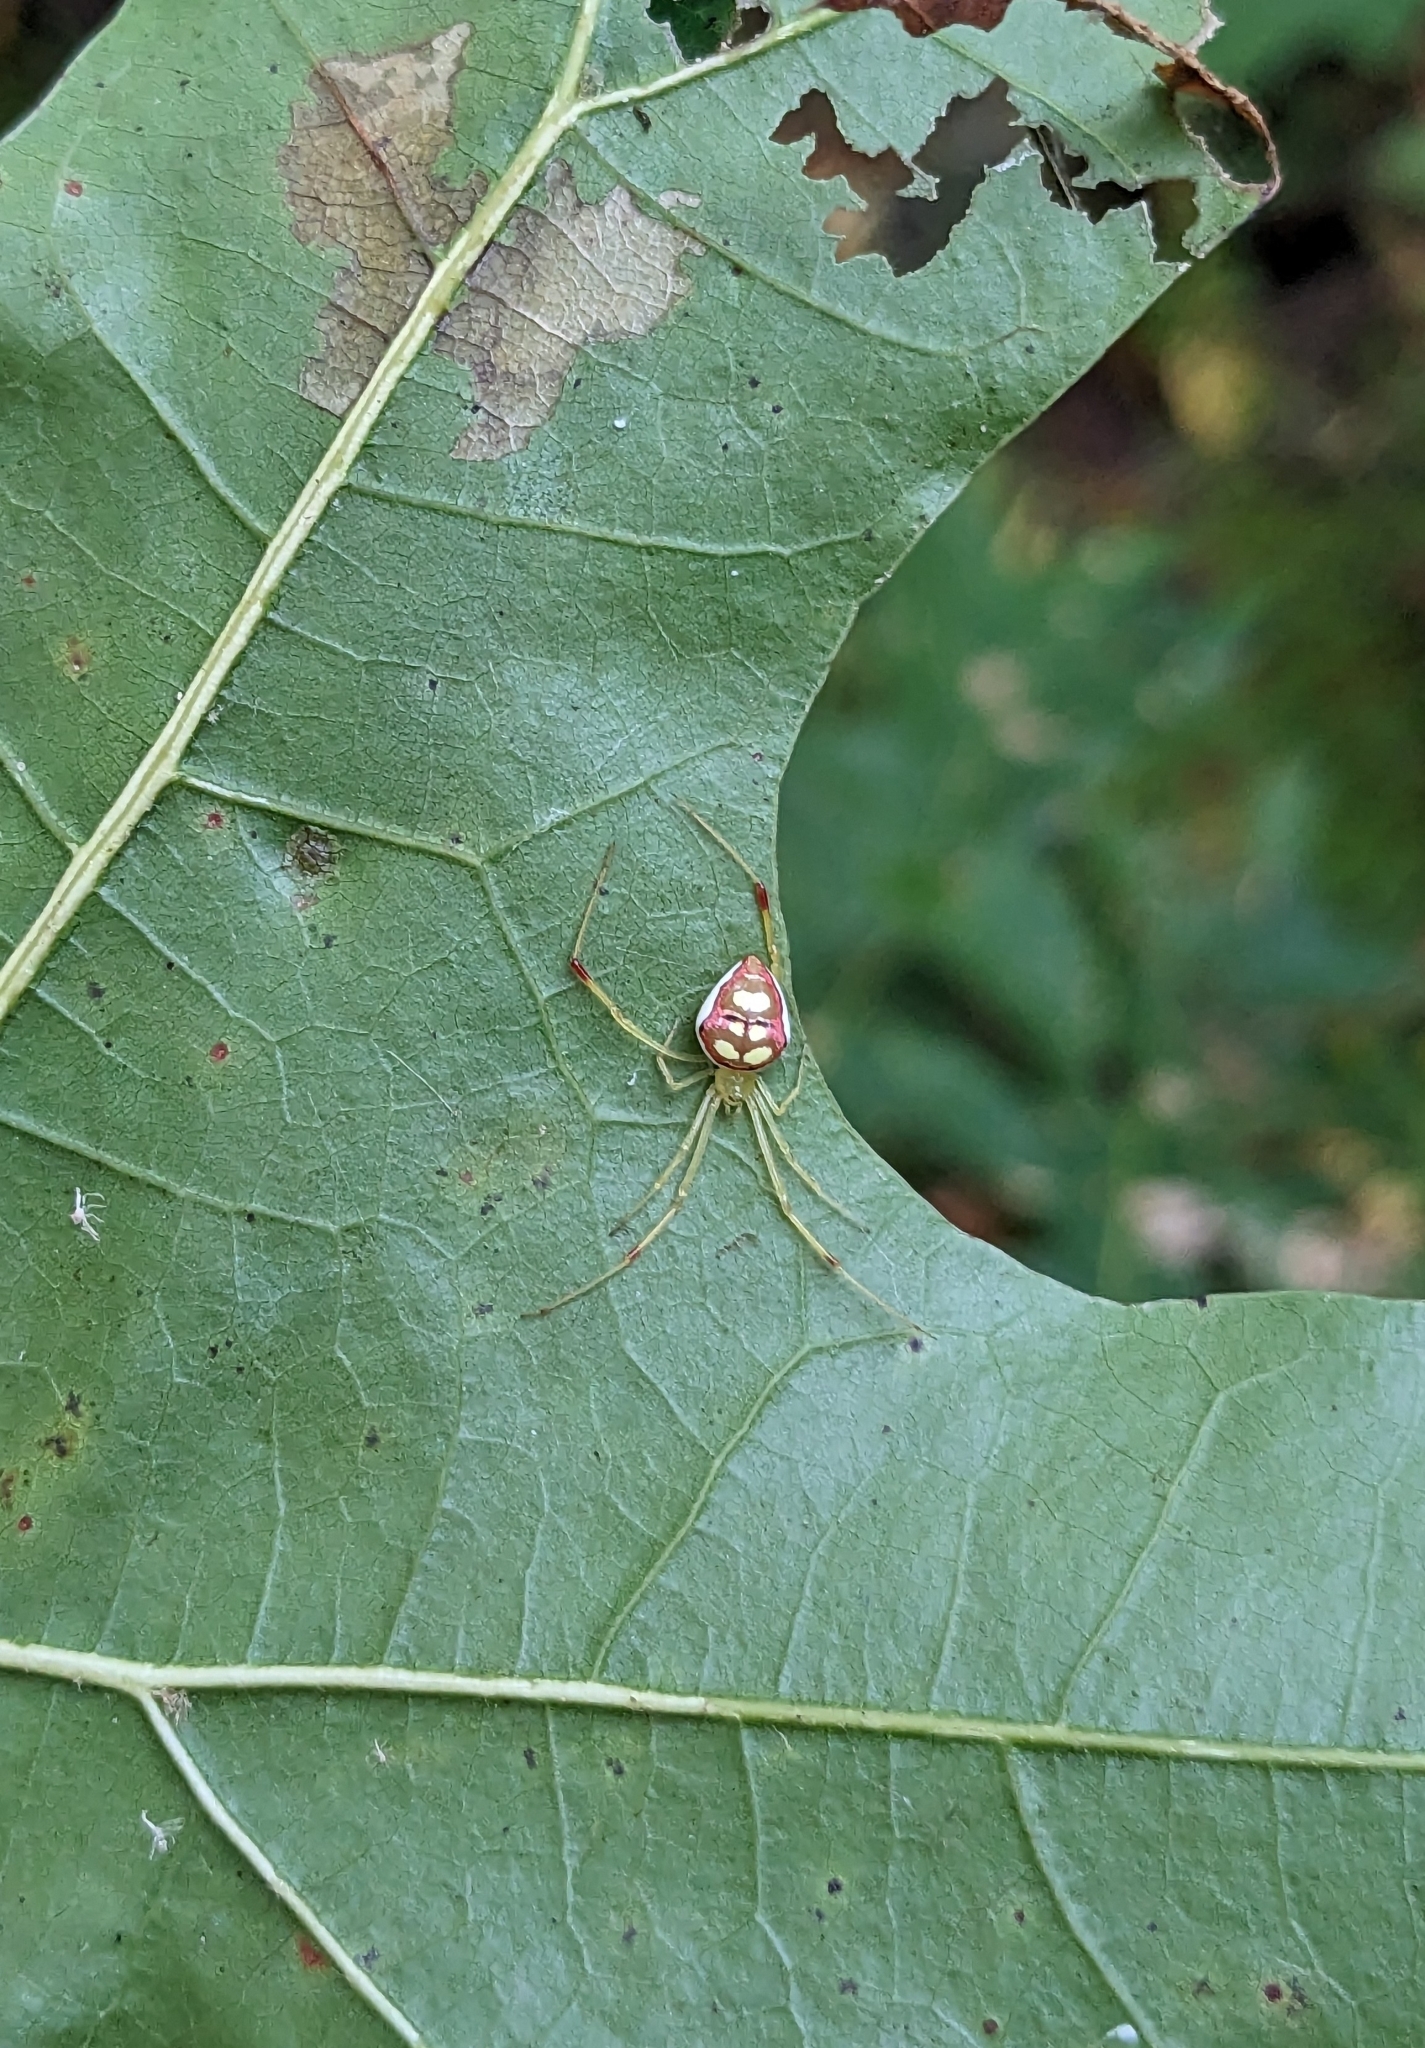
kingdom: Animalia
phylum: Arthropoda
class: Arachnida
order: Araneae
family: Theridiidae
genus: Spintharus
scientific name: Spintharus flavidus
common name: Cobweb spiders
